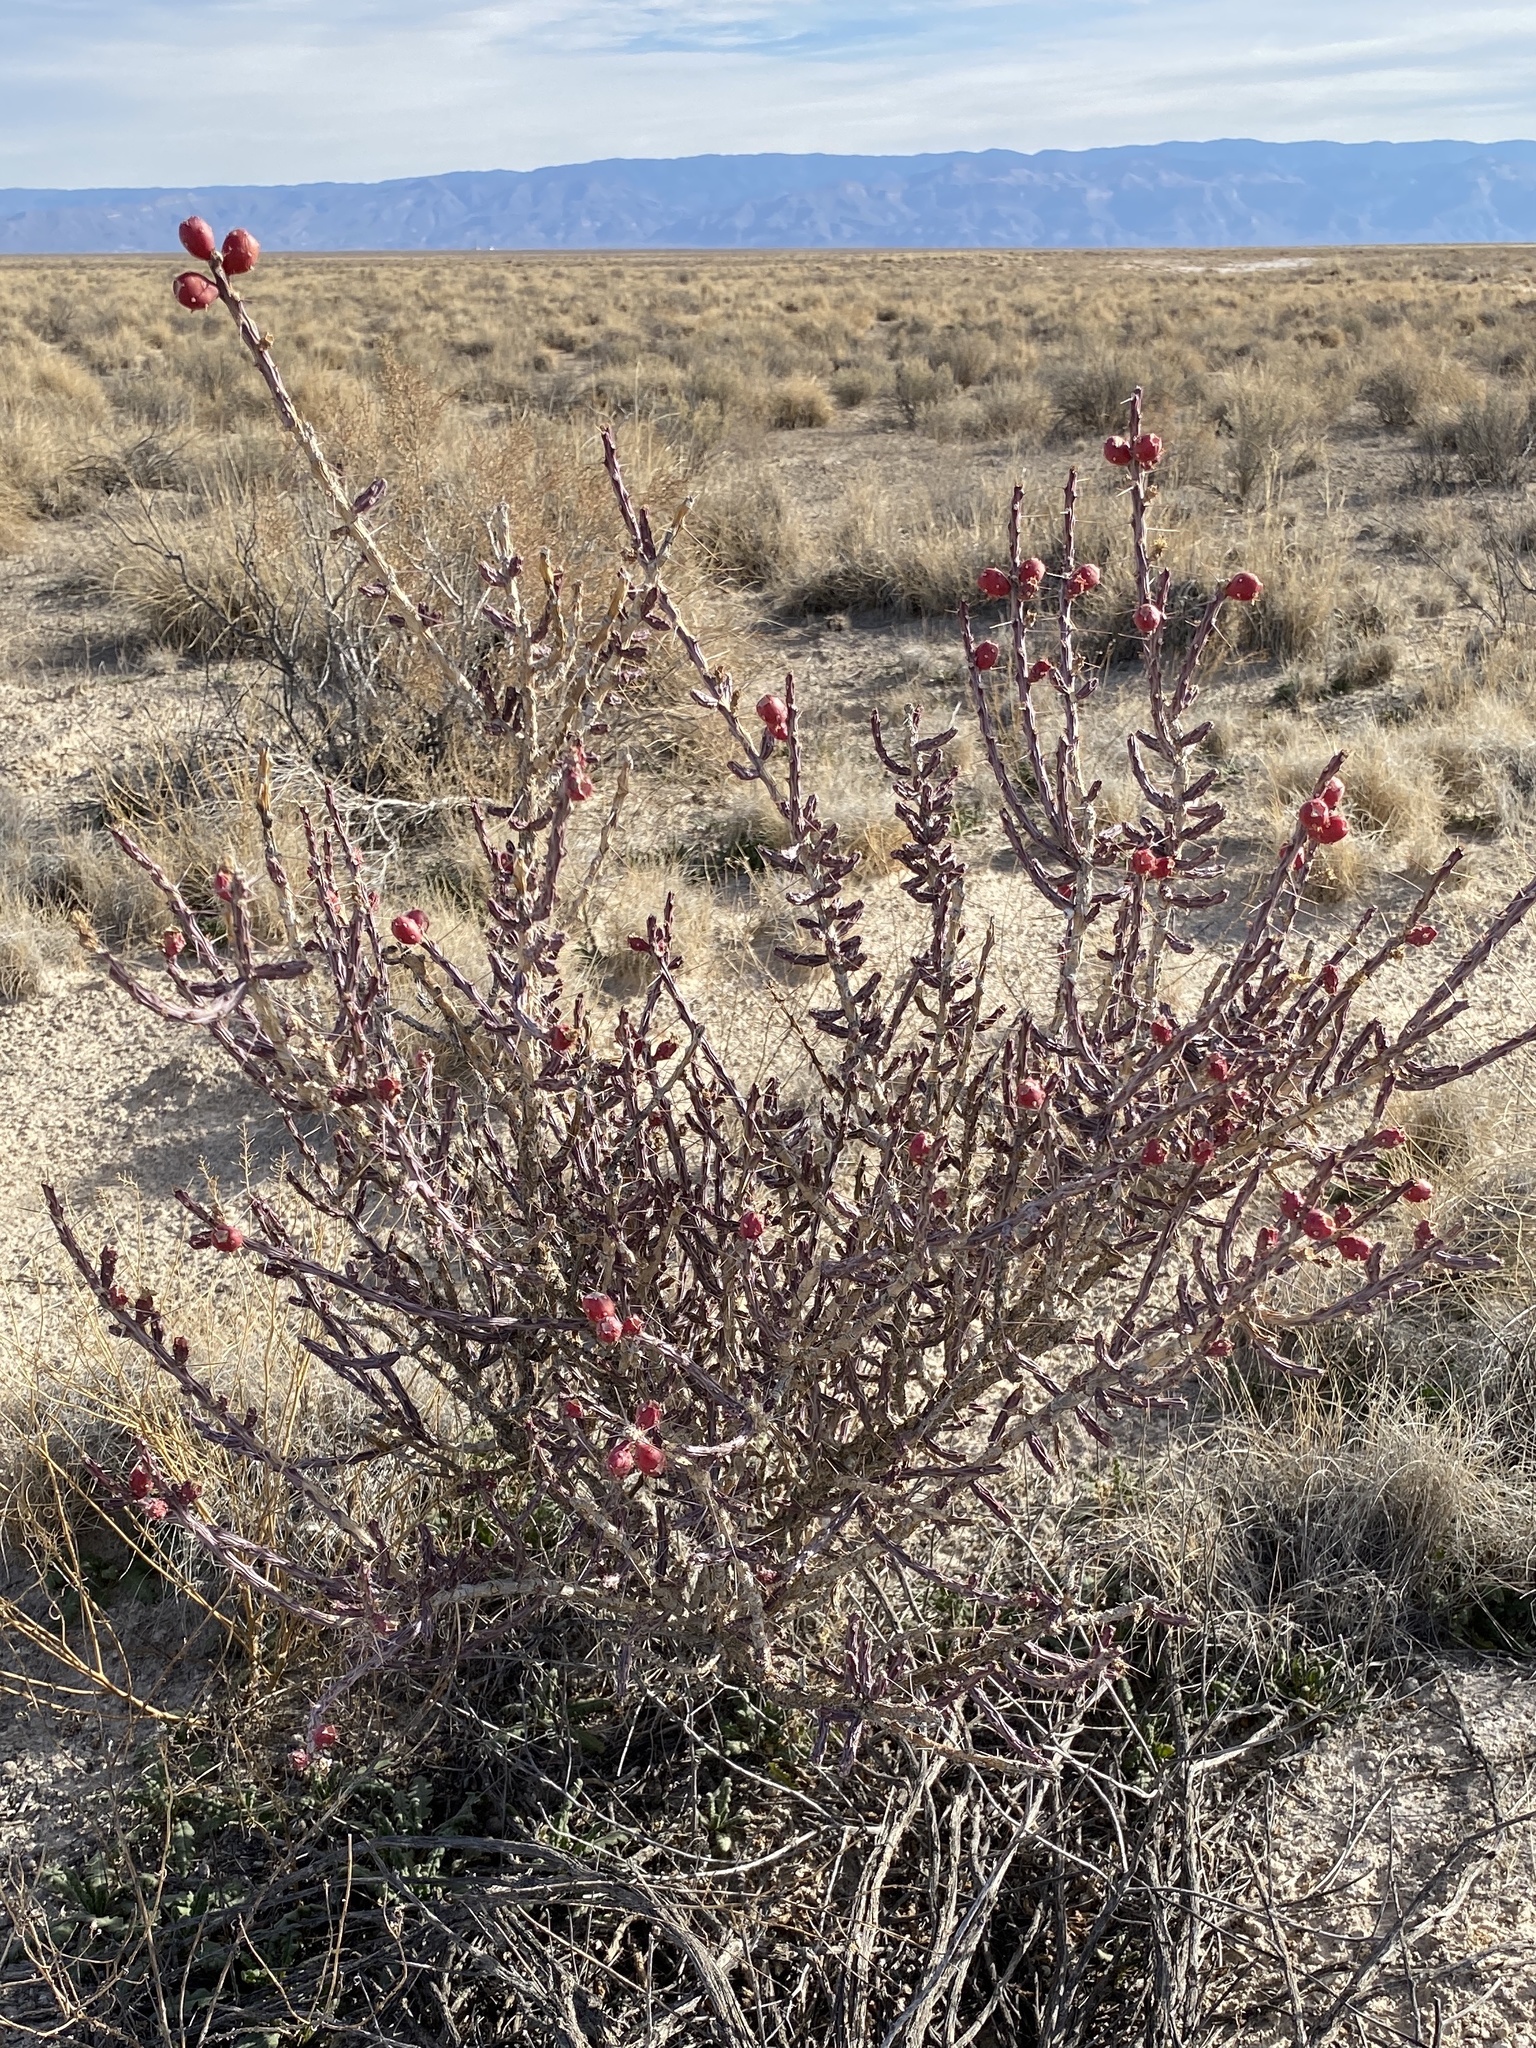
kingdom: Plantae
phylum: Tracheophyta
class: Magnoliopsida
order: Caryophyllales
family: Cactaceae
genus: Cylindropuntia
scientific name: Cylindropuntia leptocaulis
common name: Christmas cactus
